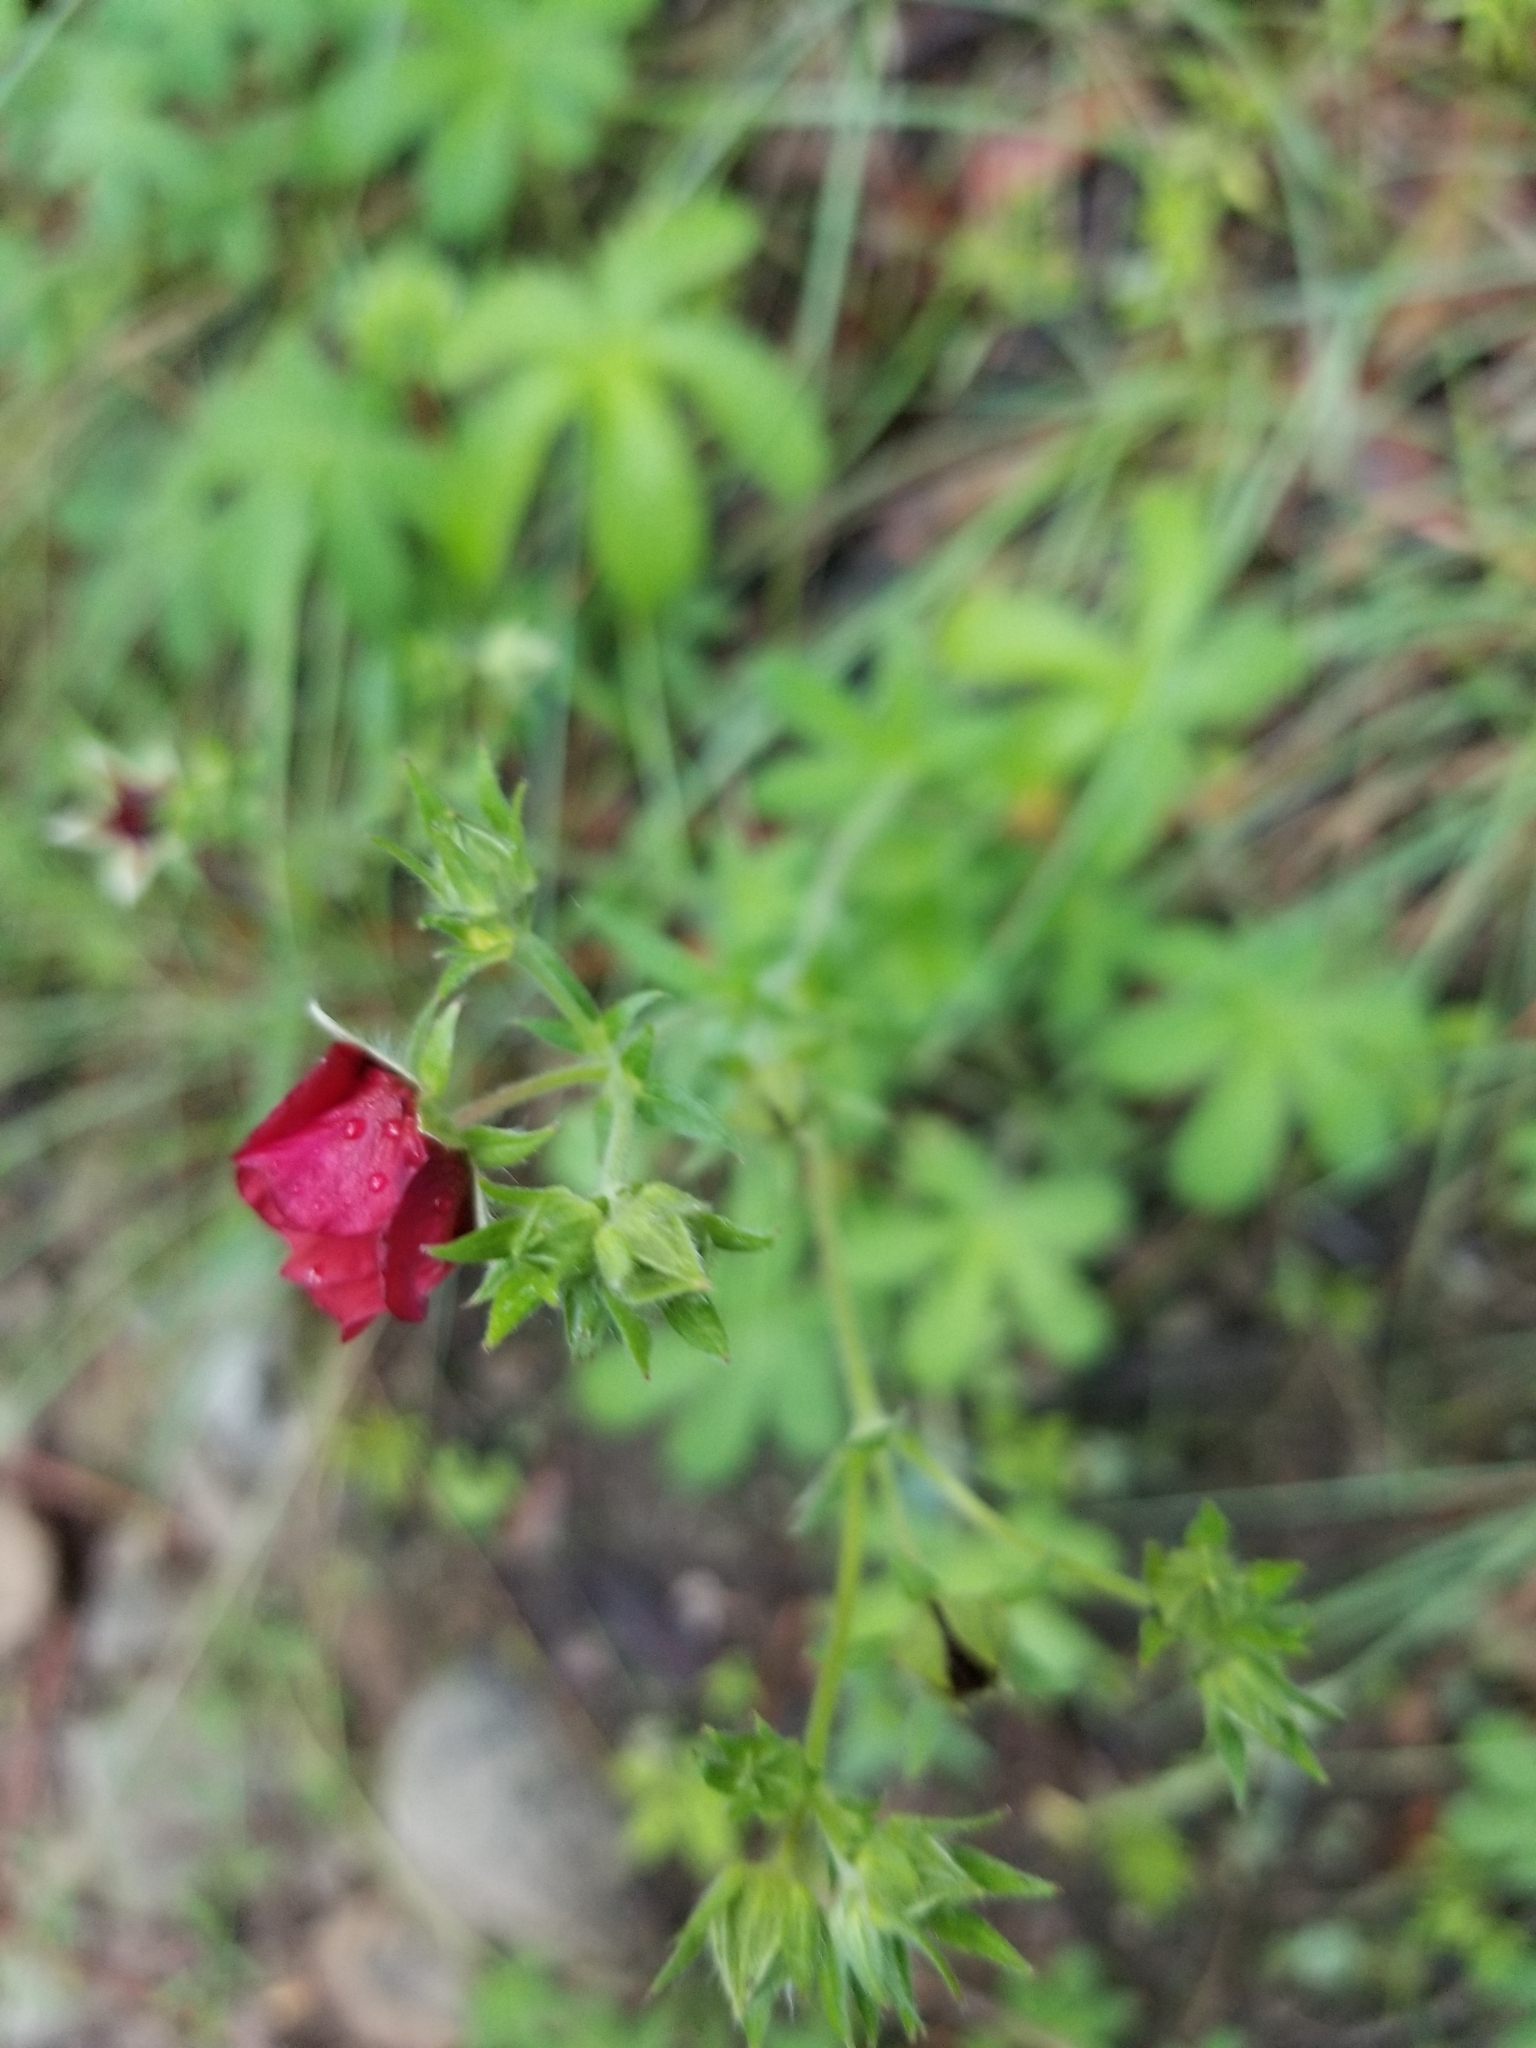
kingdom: Plantae
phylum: Tracheophyta
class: Magnoliopsida
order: Rosales
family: Rosaceae
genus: Potentilla
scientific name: Potentilla thurberi
